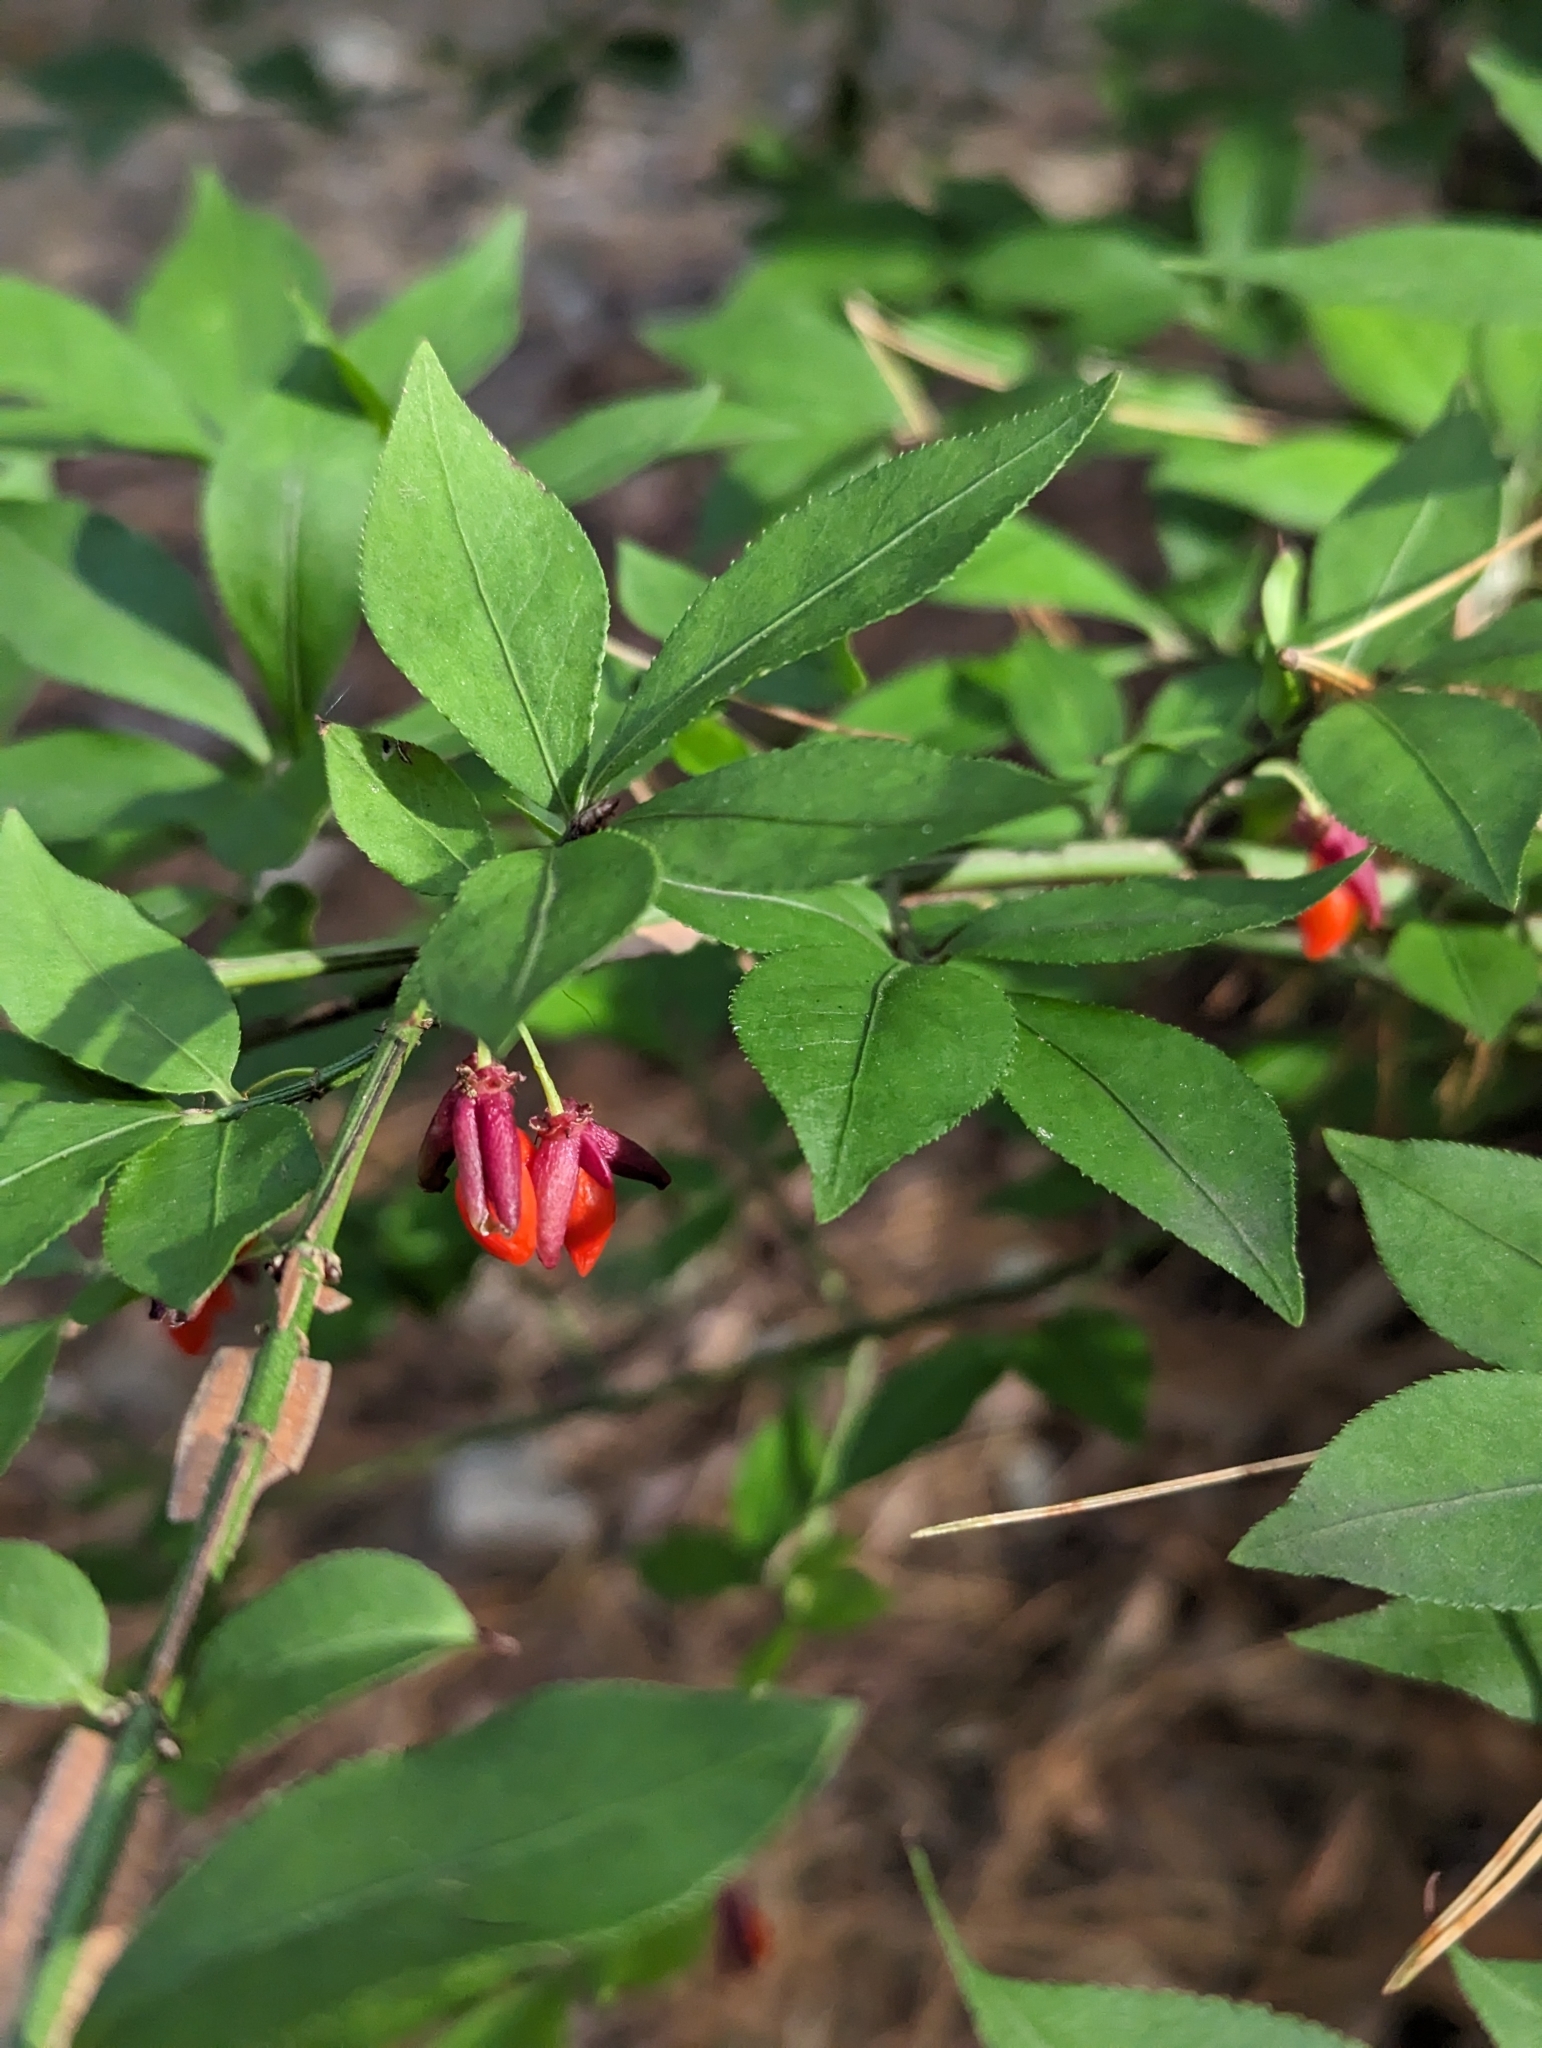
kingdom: Plantae
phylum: Tracheophyta
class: Magnoliopsida
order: Celastrales
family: Celastraceae
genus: Euonymus
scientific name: Euonymus alatus
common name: Winged euonymus
